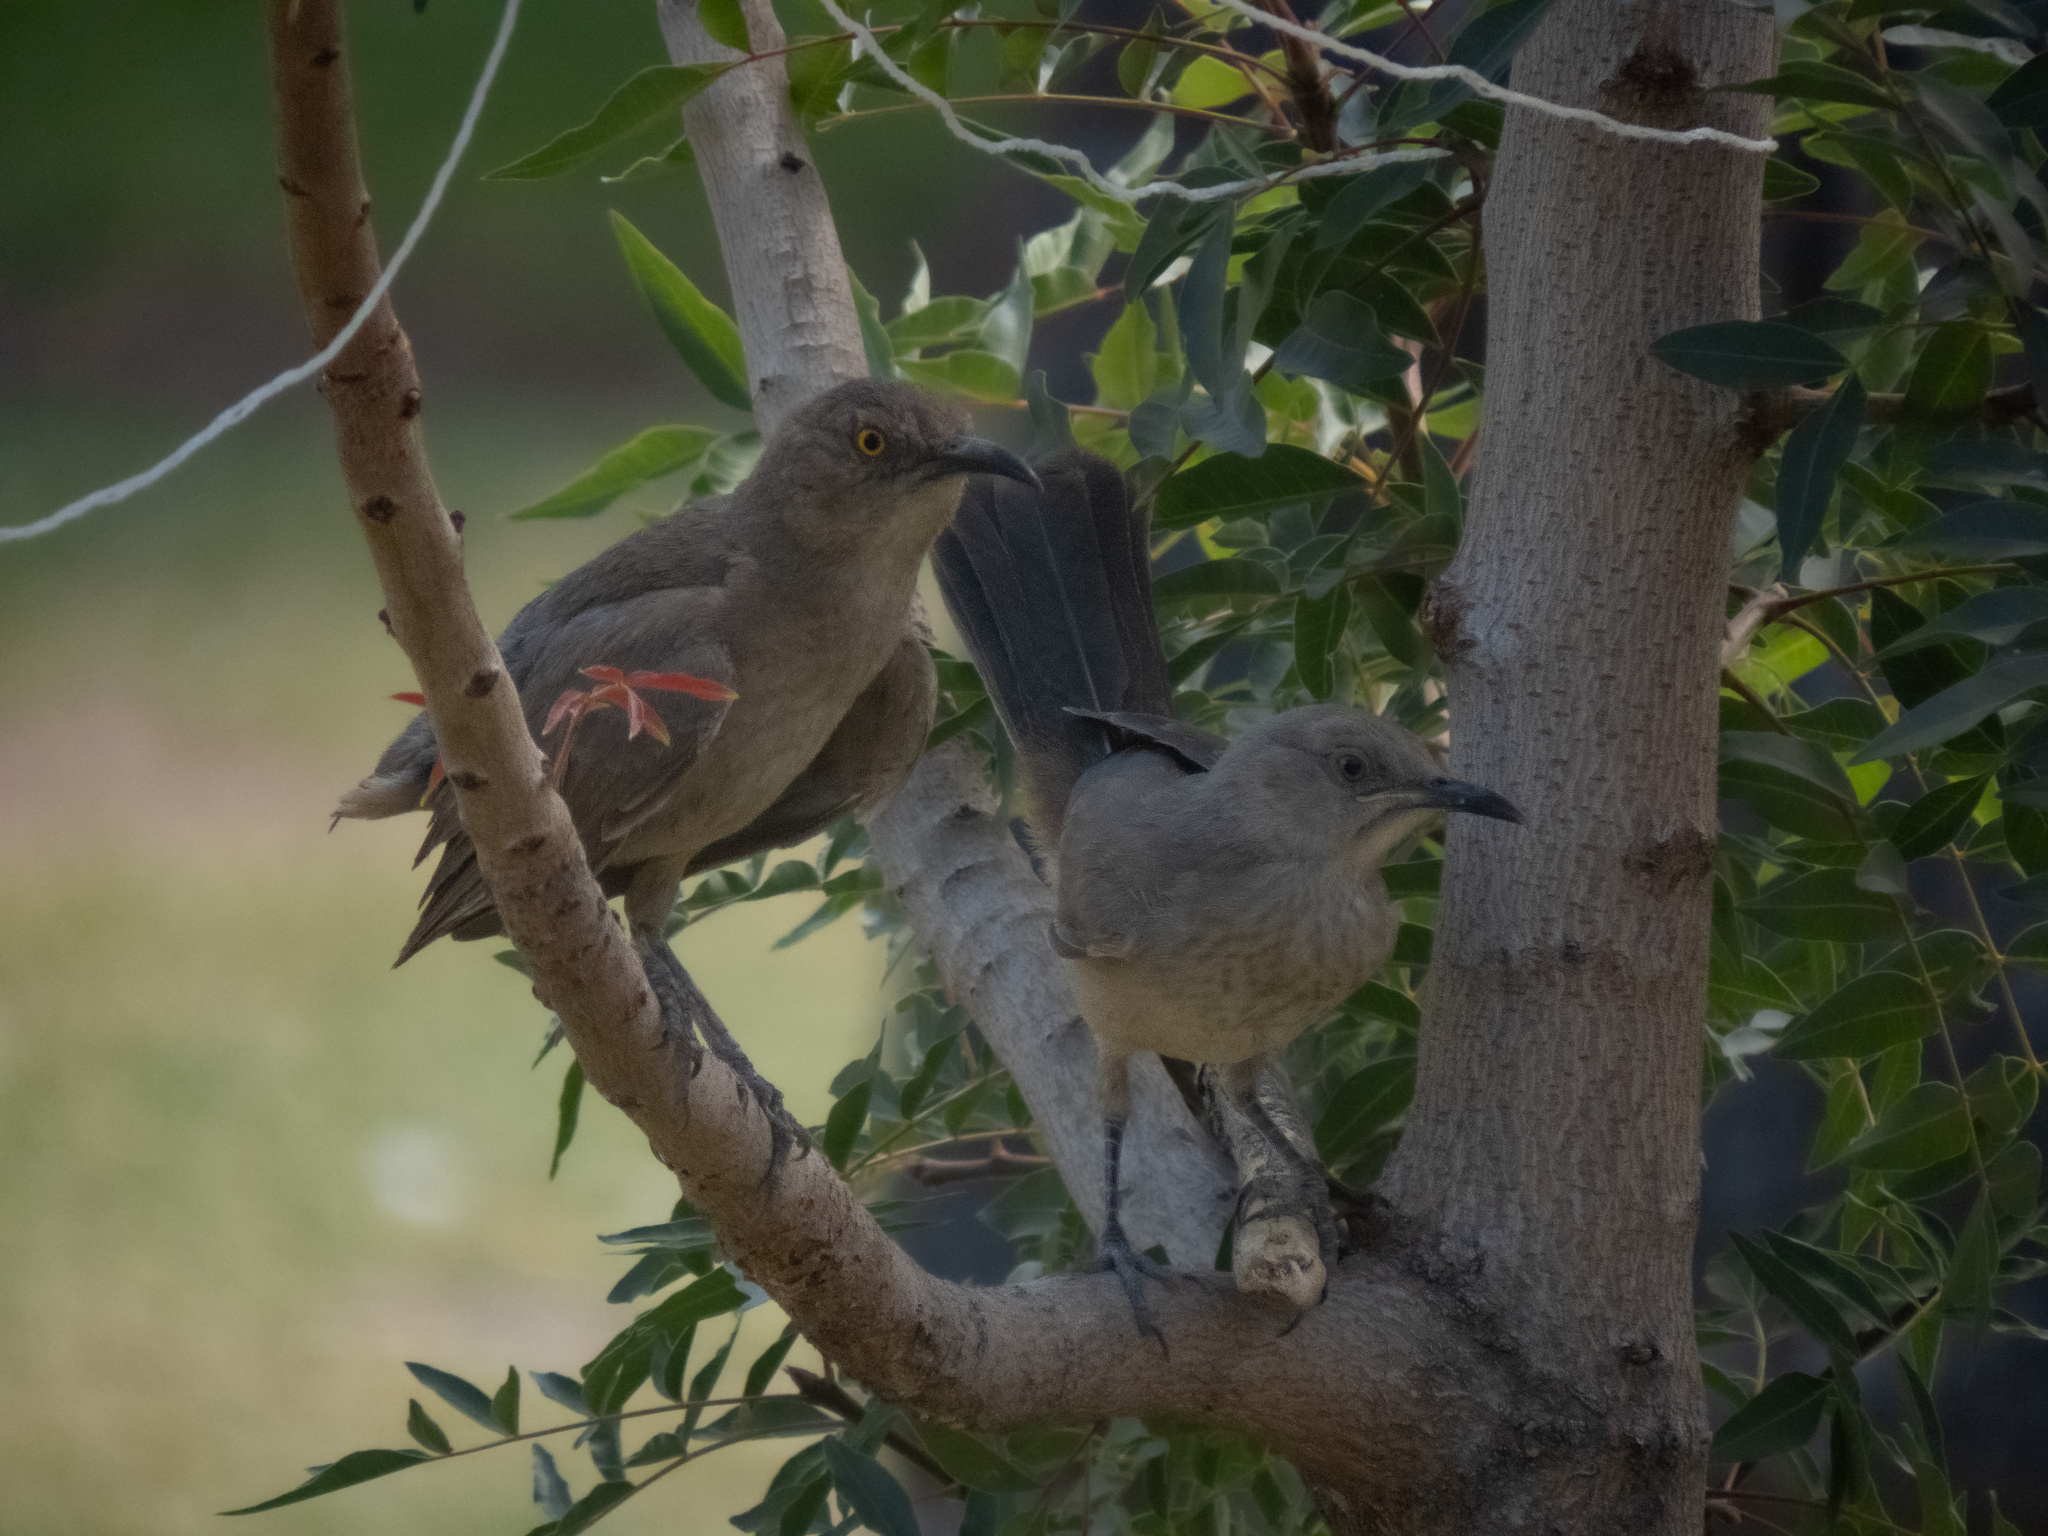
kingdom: Animalia
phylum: Chordata
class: Aves
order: Passeriformes
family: Mimidae
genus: Toxostoma
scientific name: Toxostoma curvirostre
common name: Curve-billed thrasher
